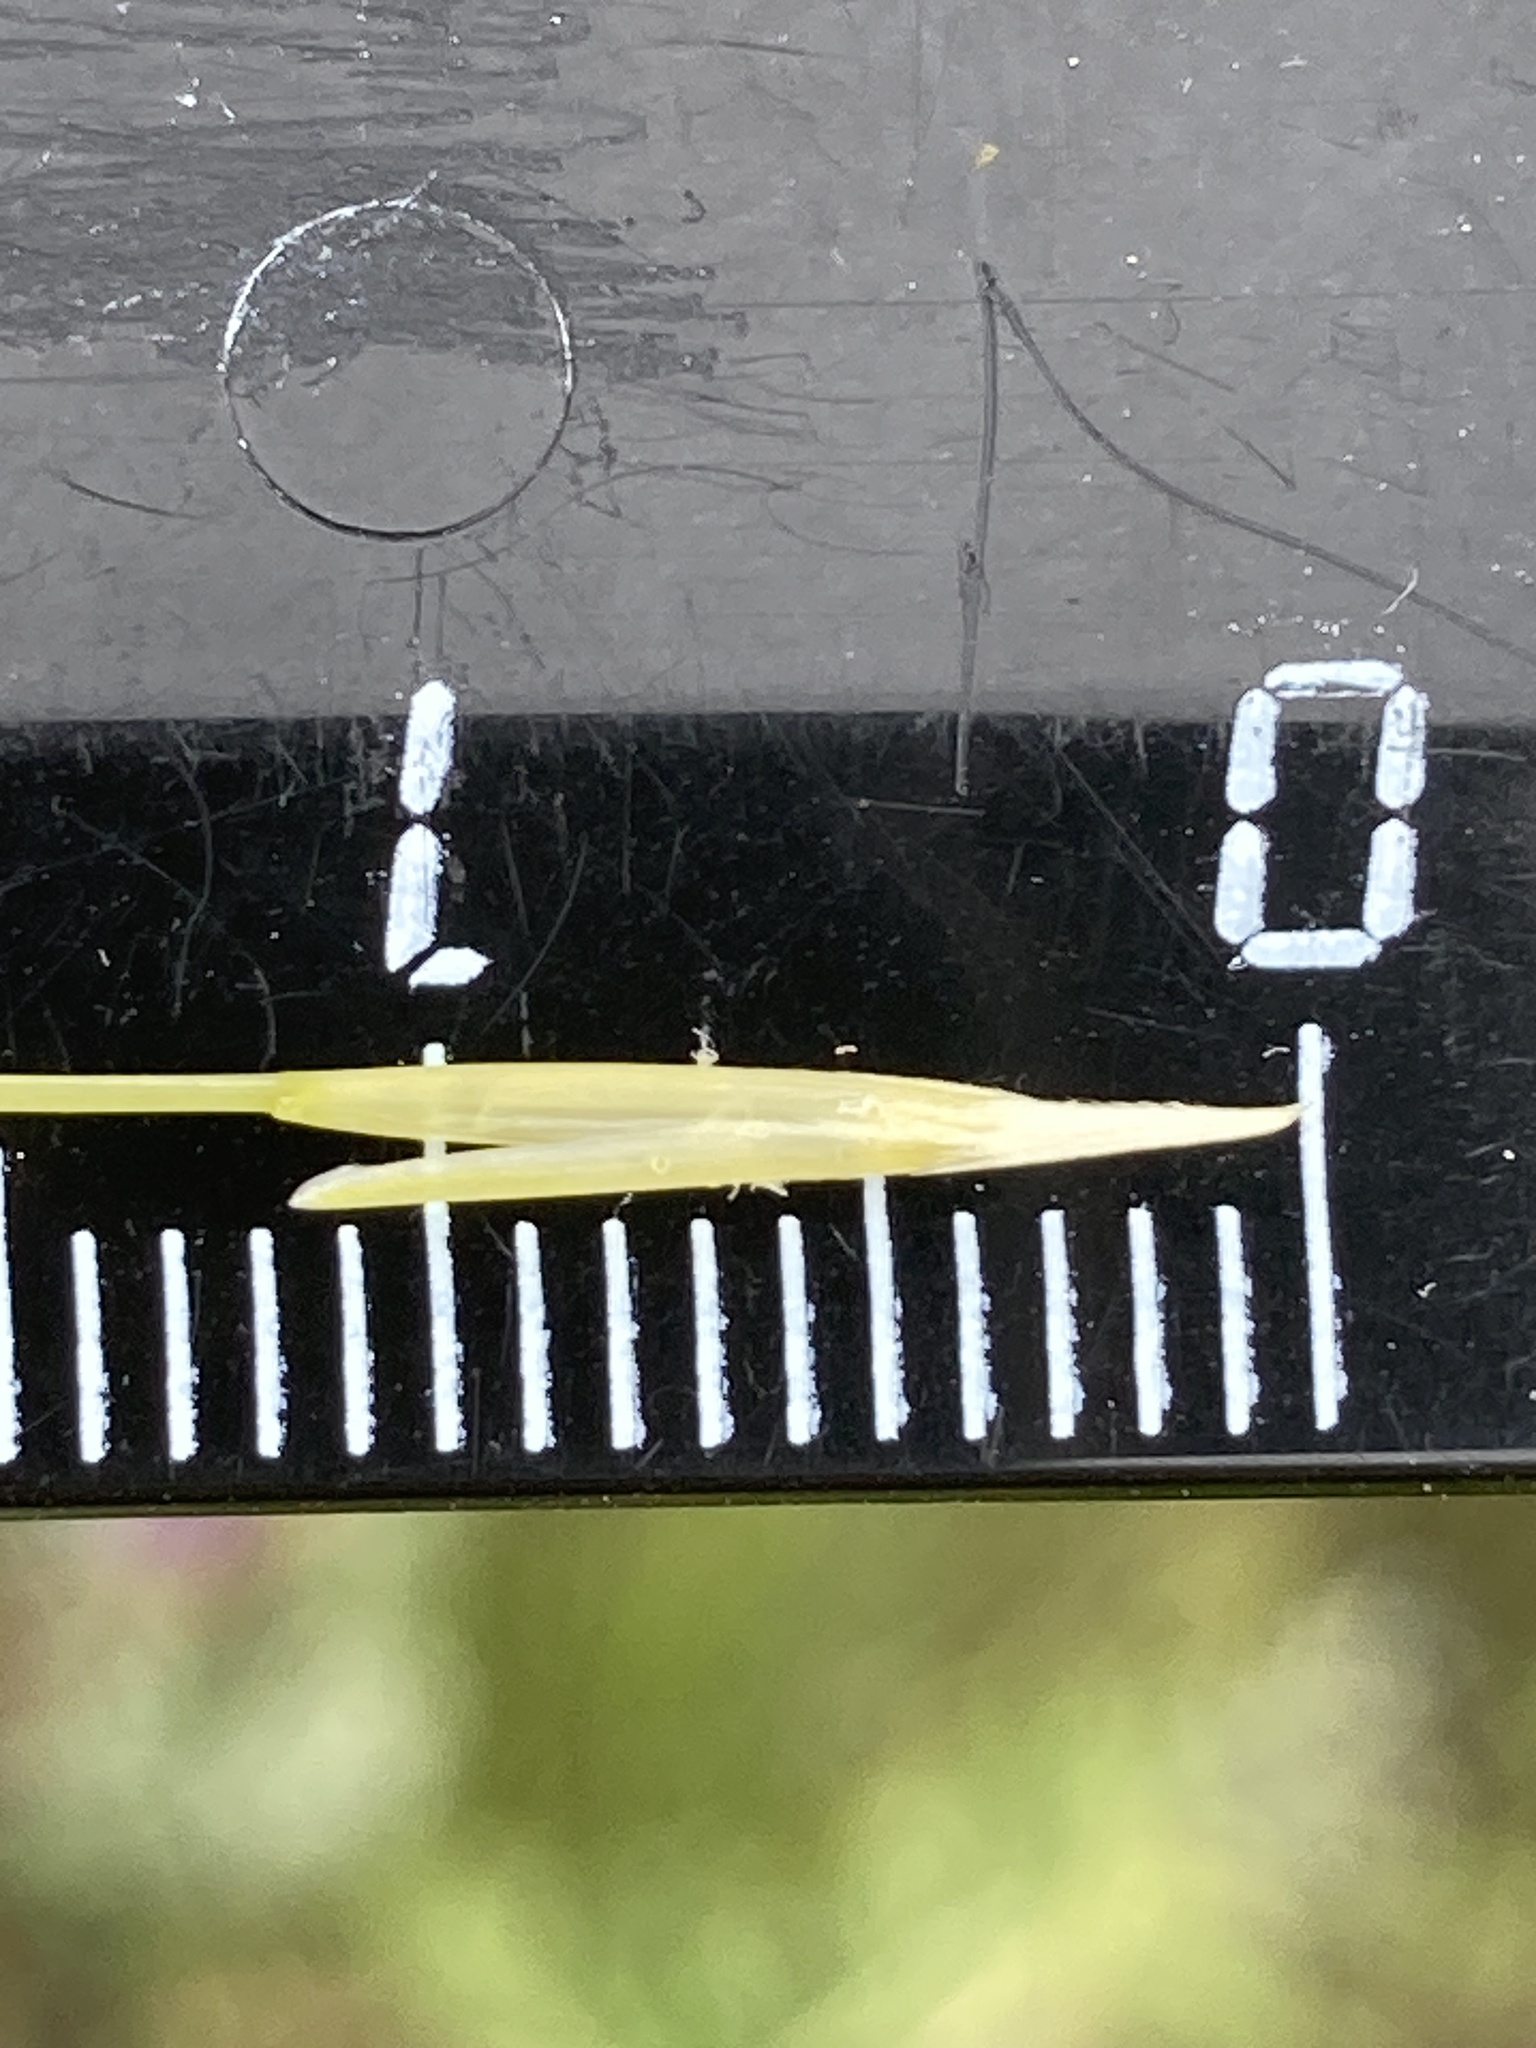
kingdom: Plantae
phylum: Tracheophyta
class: Liliopsida
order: Poales
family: Poaceae
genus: Stipa
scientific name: Stipa capillata
